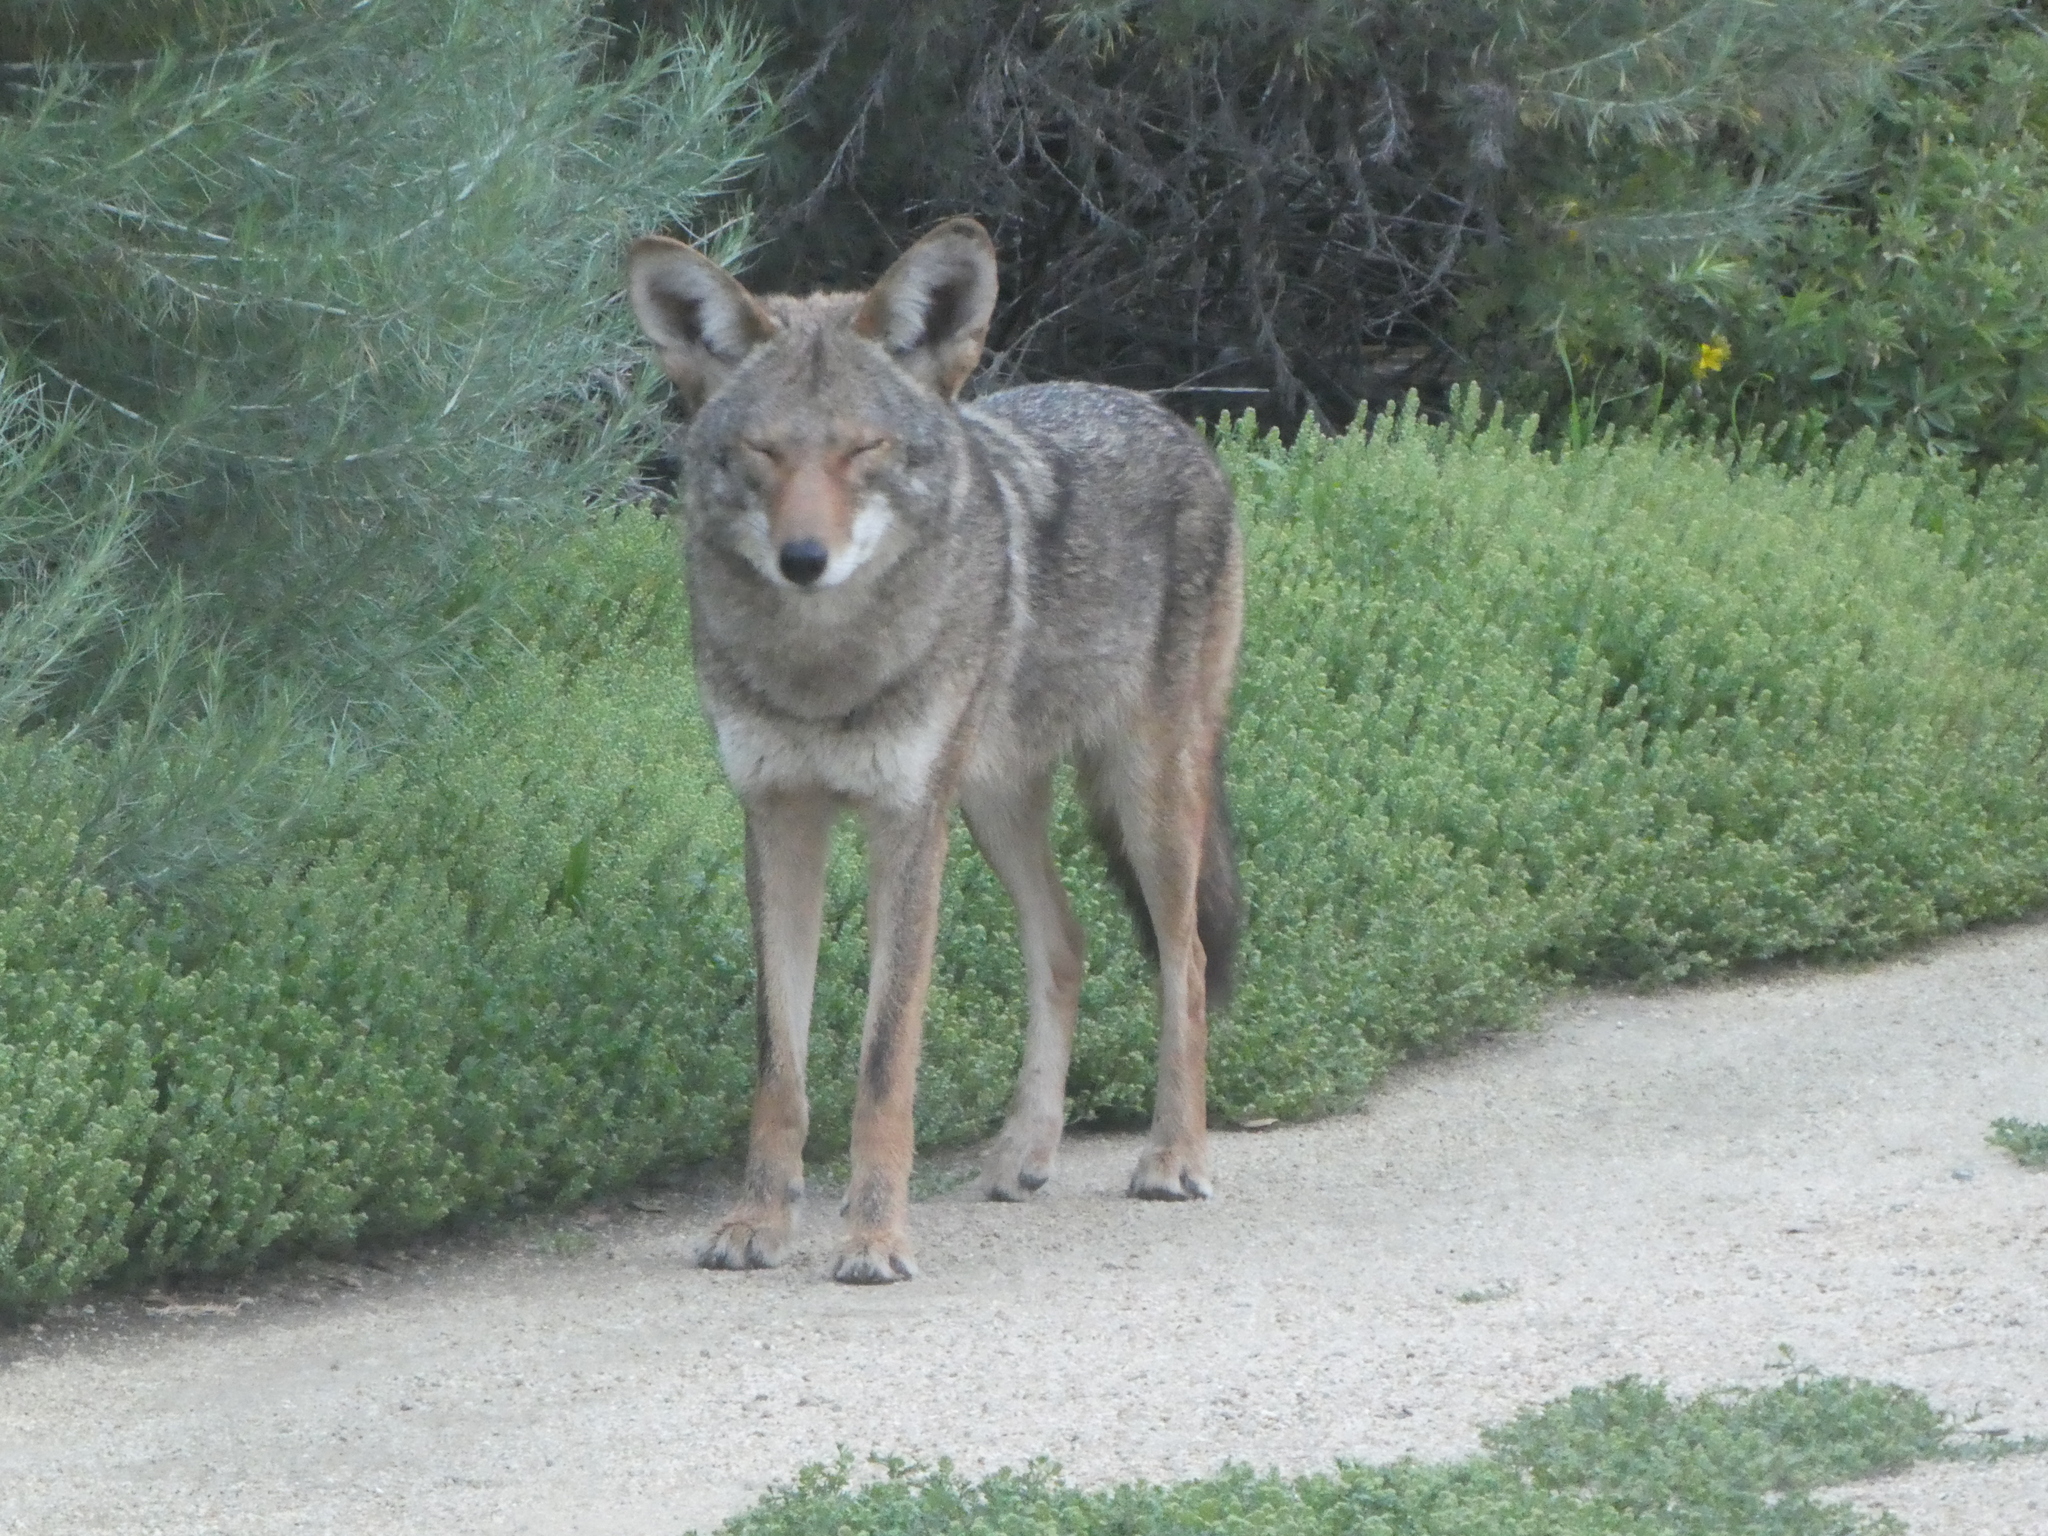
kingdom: Animalia
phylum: Chordata
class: Mammalia
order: Carnivora
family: Canidae
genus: Canis
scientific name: Canis latrans
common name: Coyote
